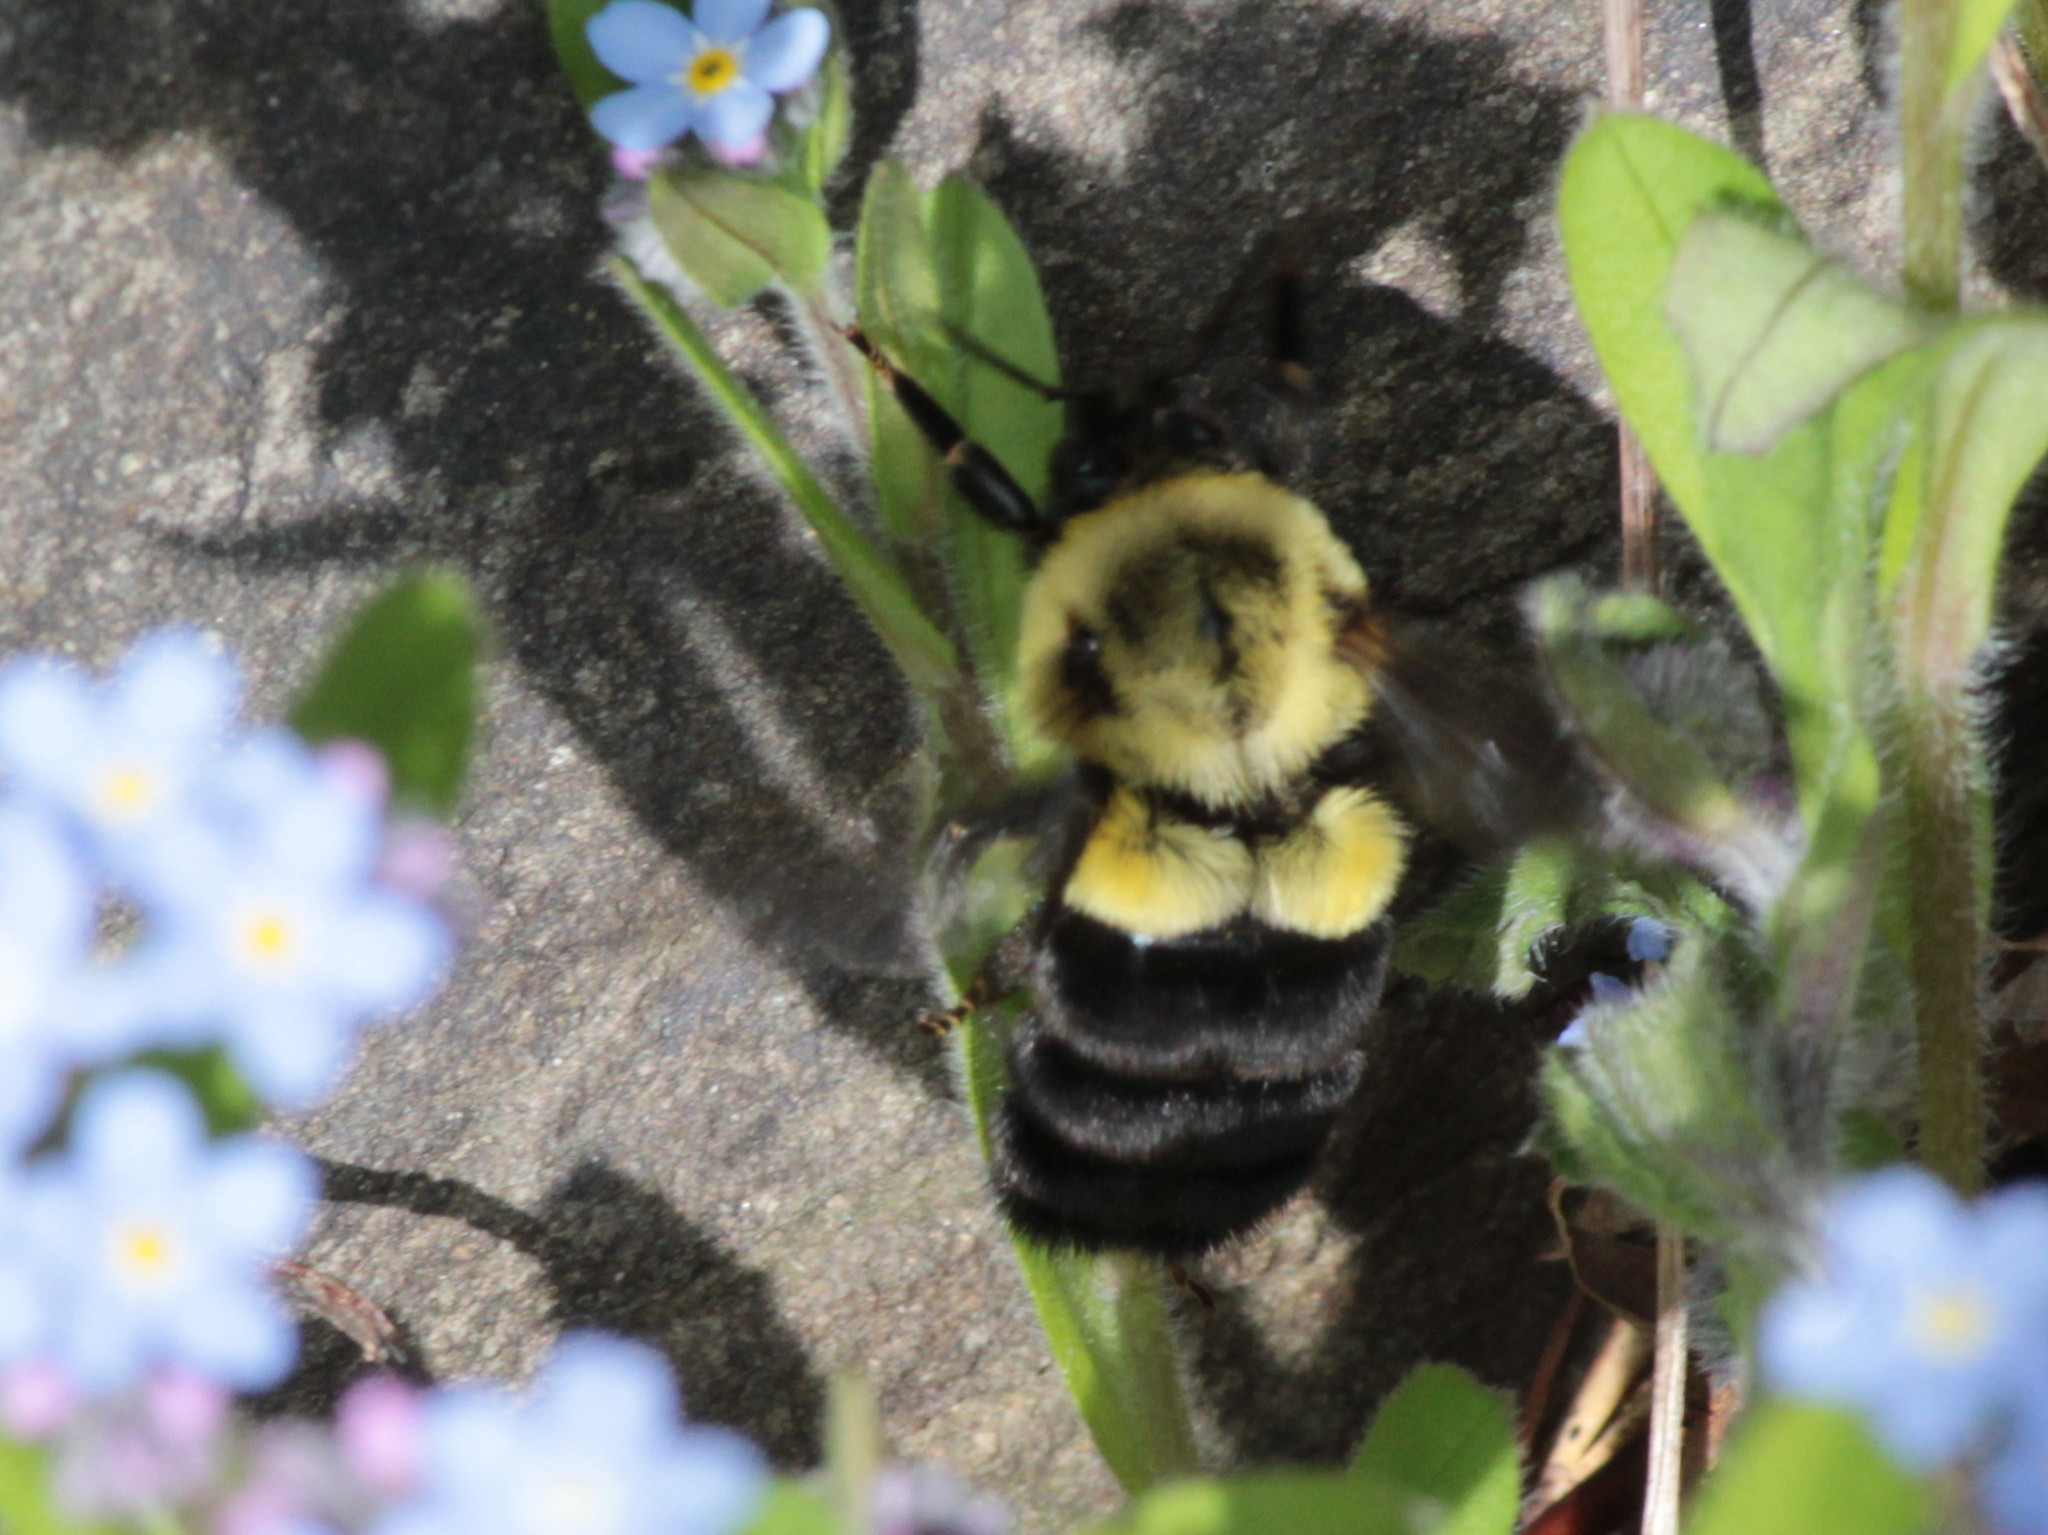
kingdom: Animalia
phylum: Arthropoda
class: Insecta
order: Hymenoptera
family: Apidae
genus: Bombus
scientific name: Bombus impatiens
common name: Common eastern bumble bee
